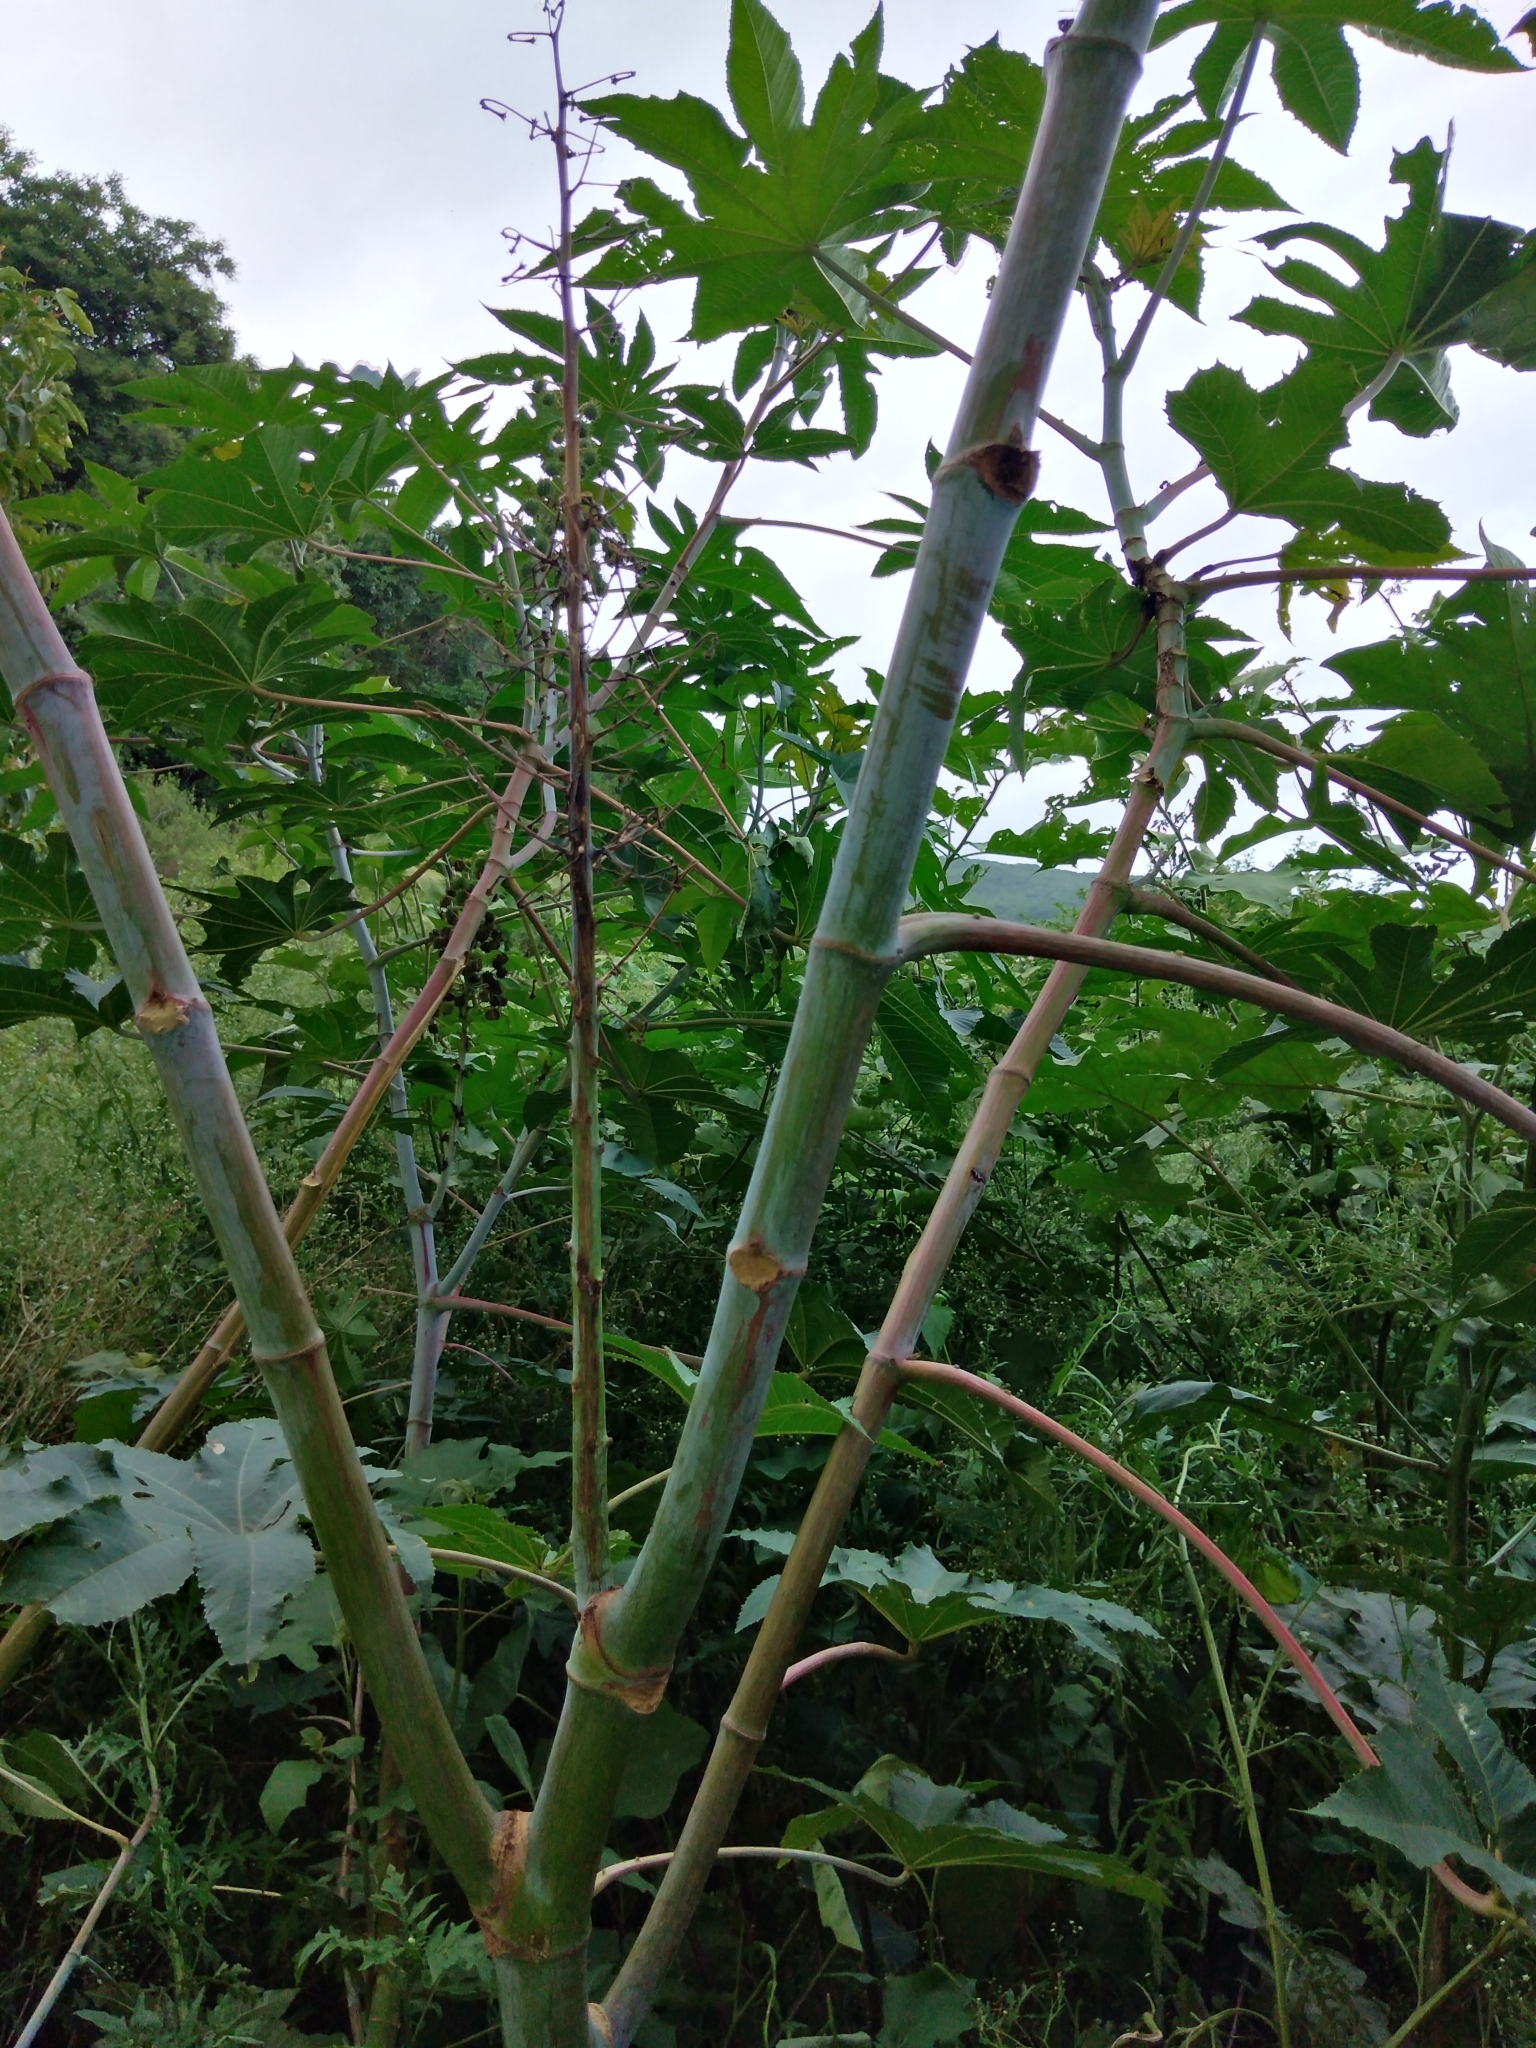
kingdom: Plantae
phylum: Tracheophyta
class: Magnoliopsida
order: Malpighiales
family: Euphorbiaceae
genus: Ricinus
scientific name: Ricinus communis
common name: Castor-oil-plant
